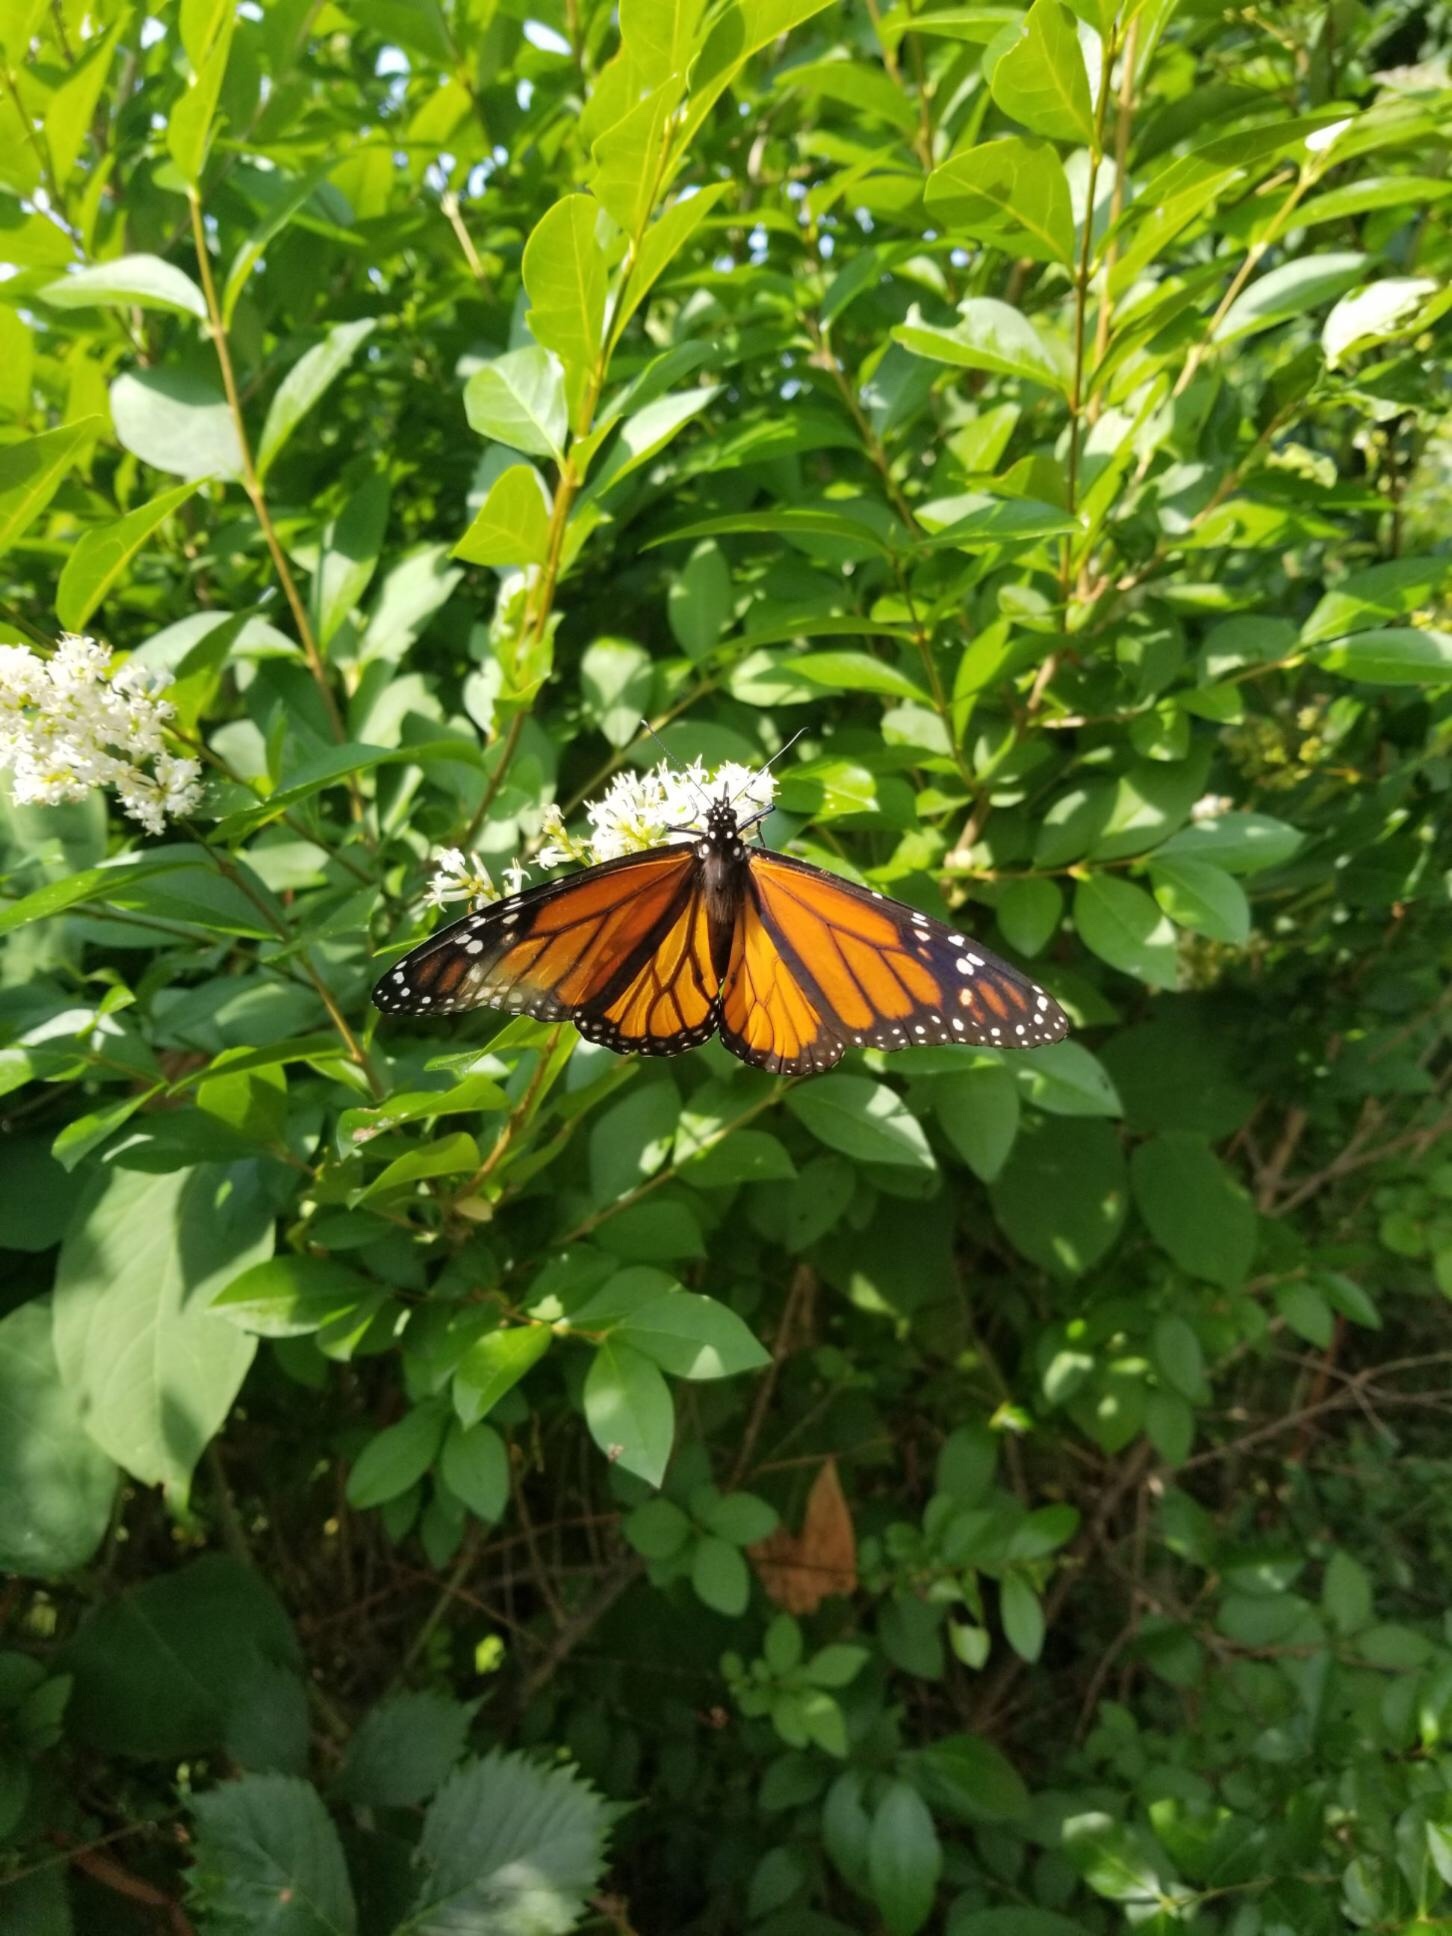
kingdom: Animalia
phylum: Arthropoda
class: Insecta
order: Lepidoptera
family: Nymphalidae
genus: Danaus
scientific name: Danaus plexippus
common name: Monarch
